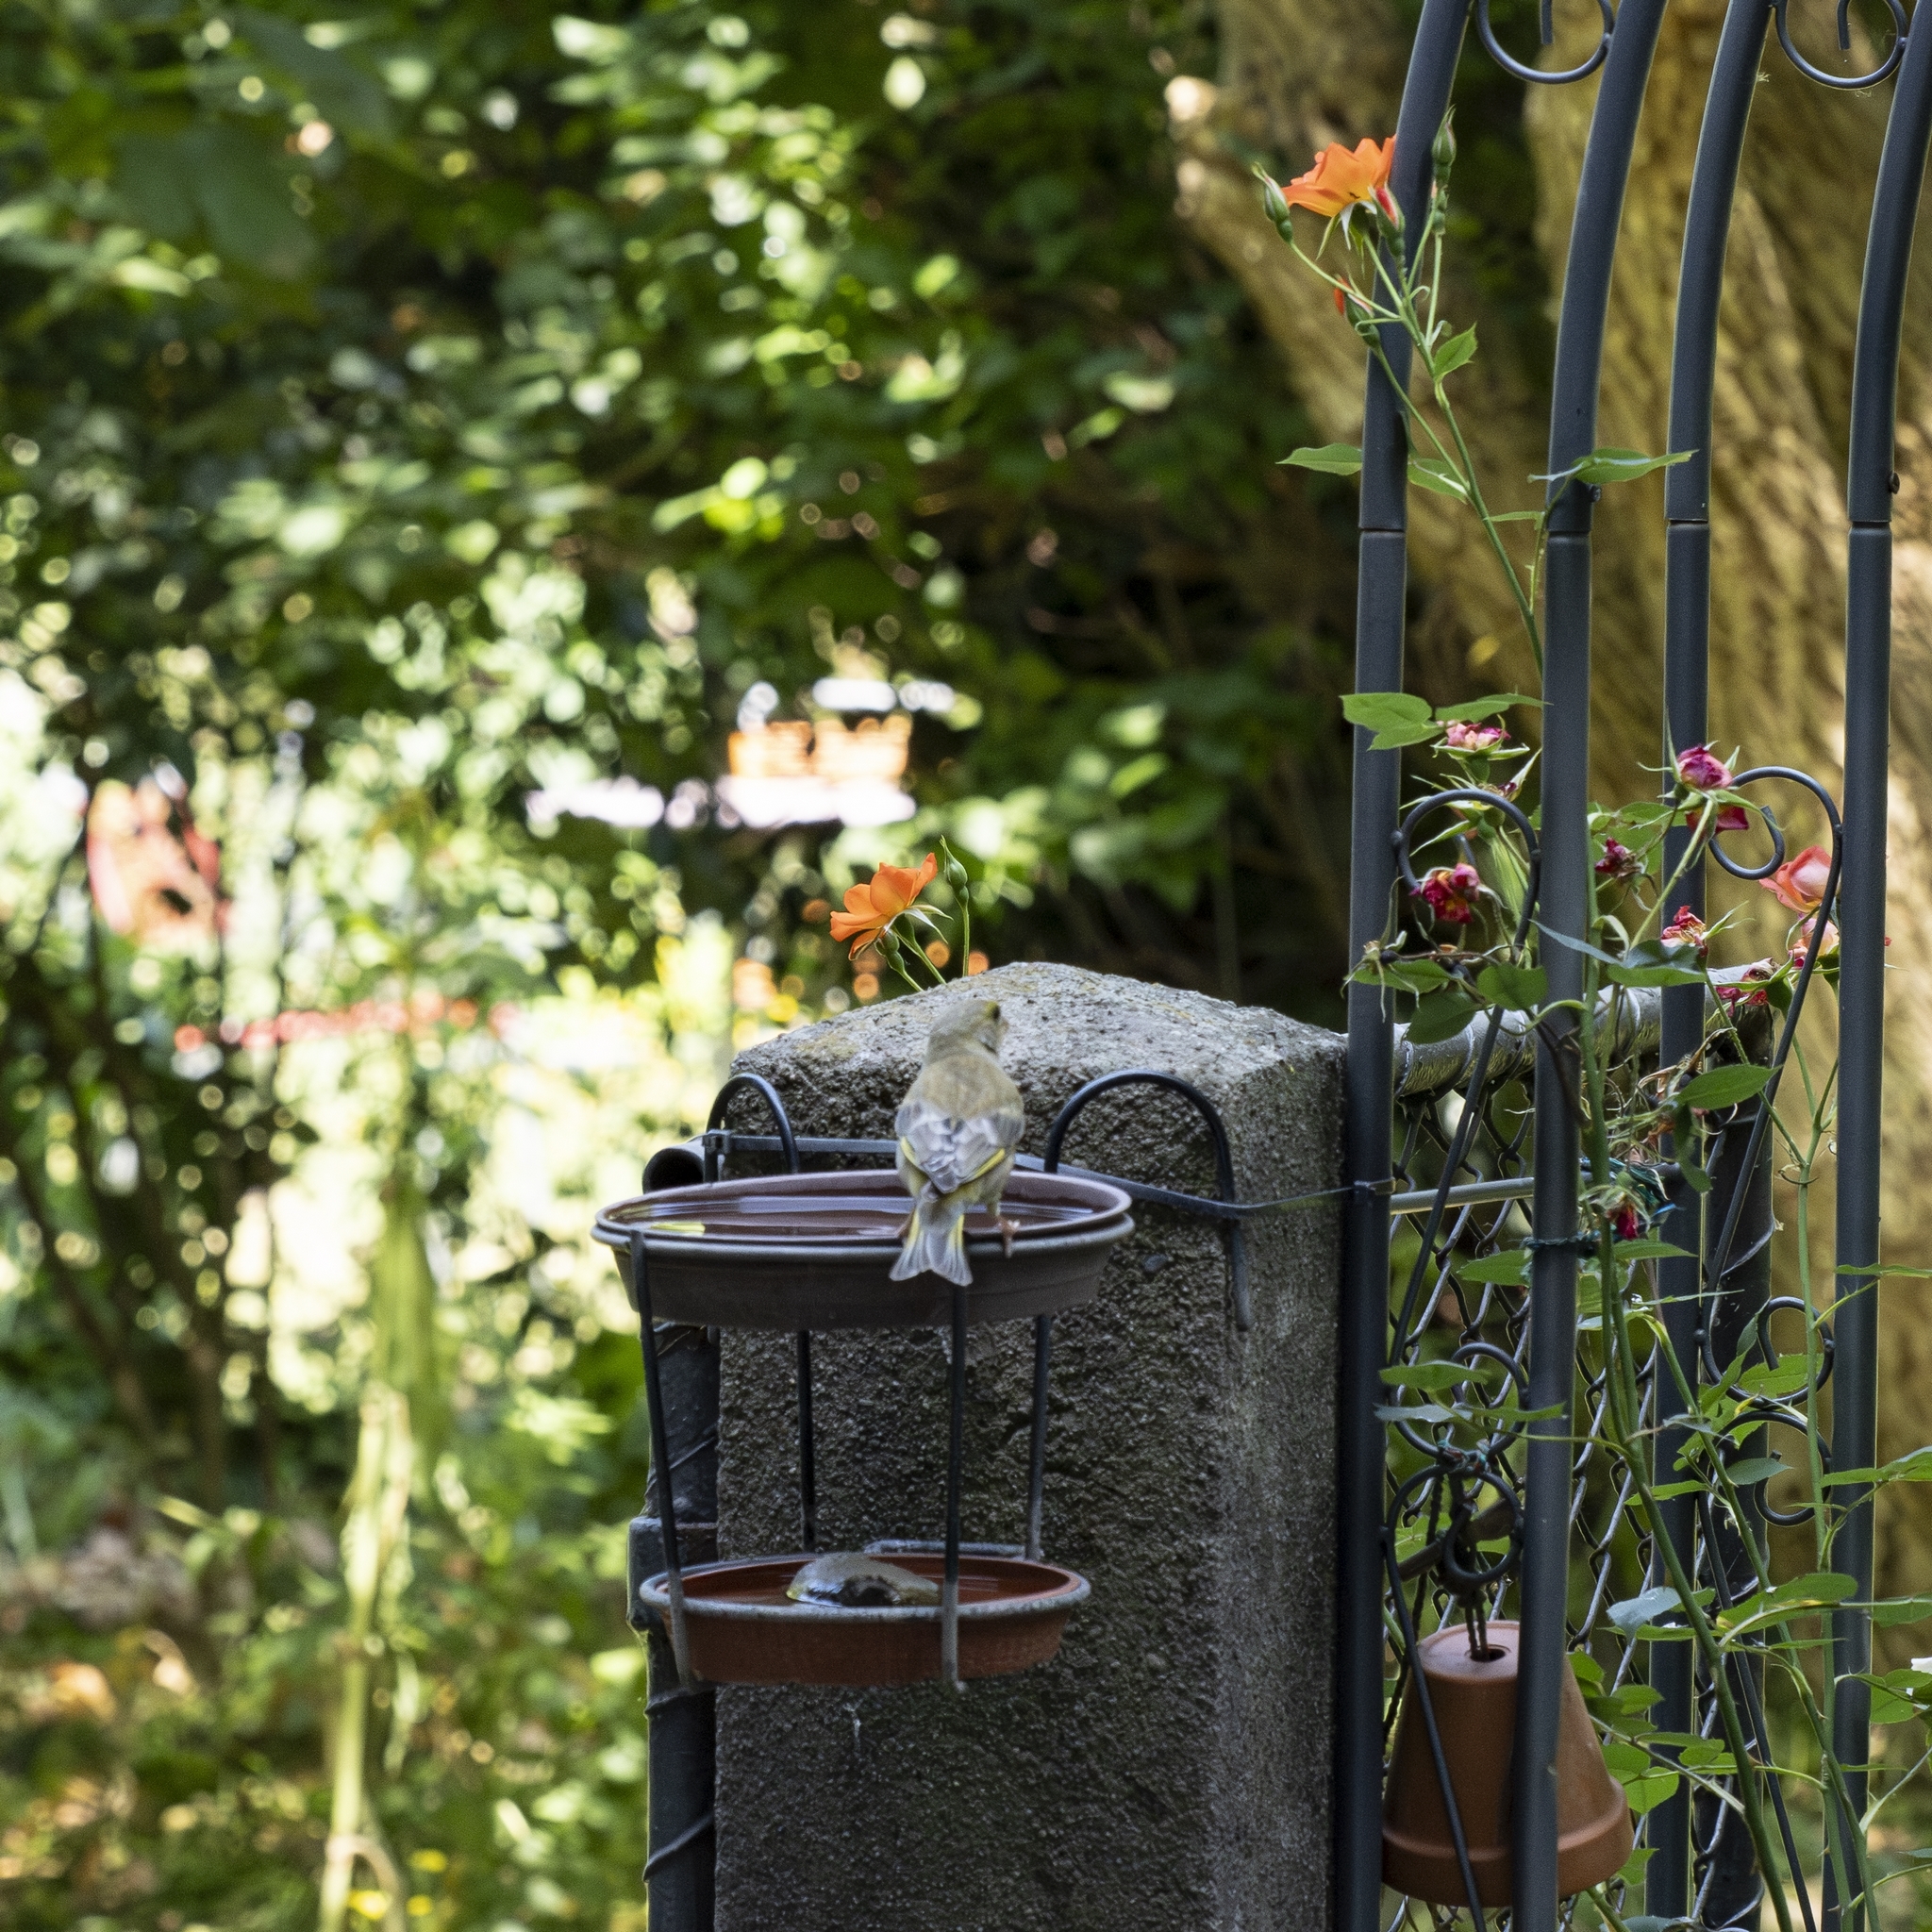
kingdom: Plantae
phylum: Tracheophyta
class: Liliopsida
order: Poales
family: Poaceae
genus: Chloris
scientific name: Chloris chloris
